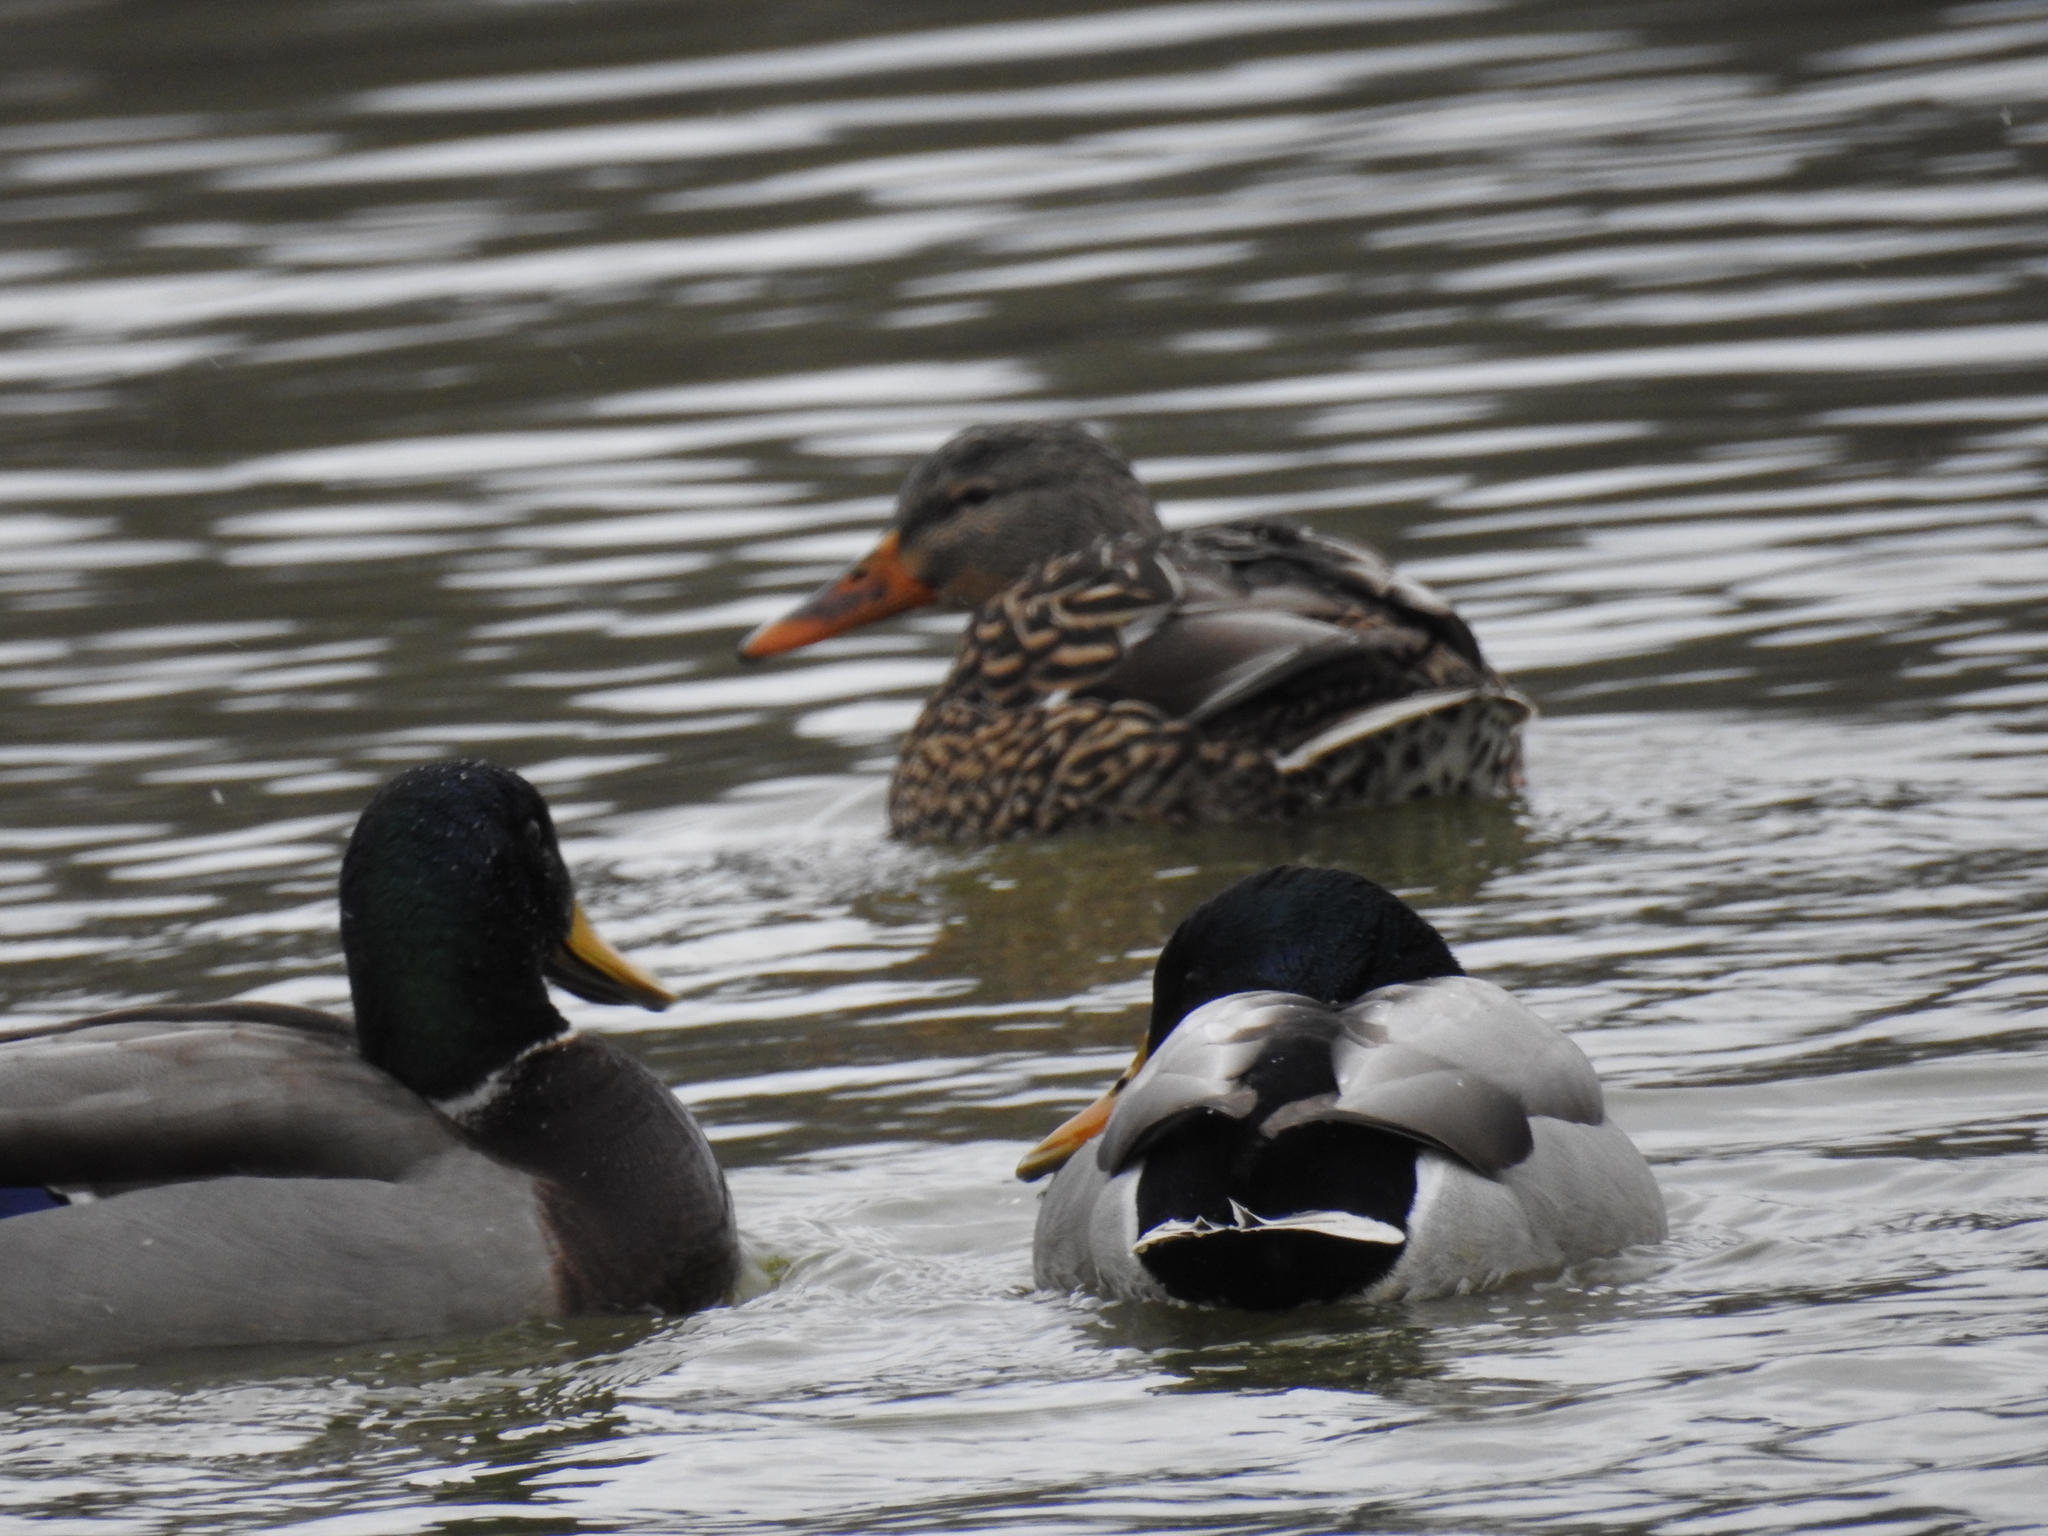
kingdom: Animalia
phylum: Chordata
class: Aves
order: Anseriformes
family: Anatidae
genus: Anas
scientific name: Anas platyrhynchos
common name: Mallard
